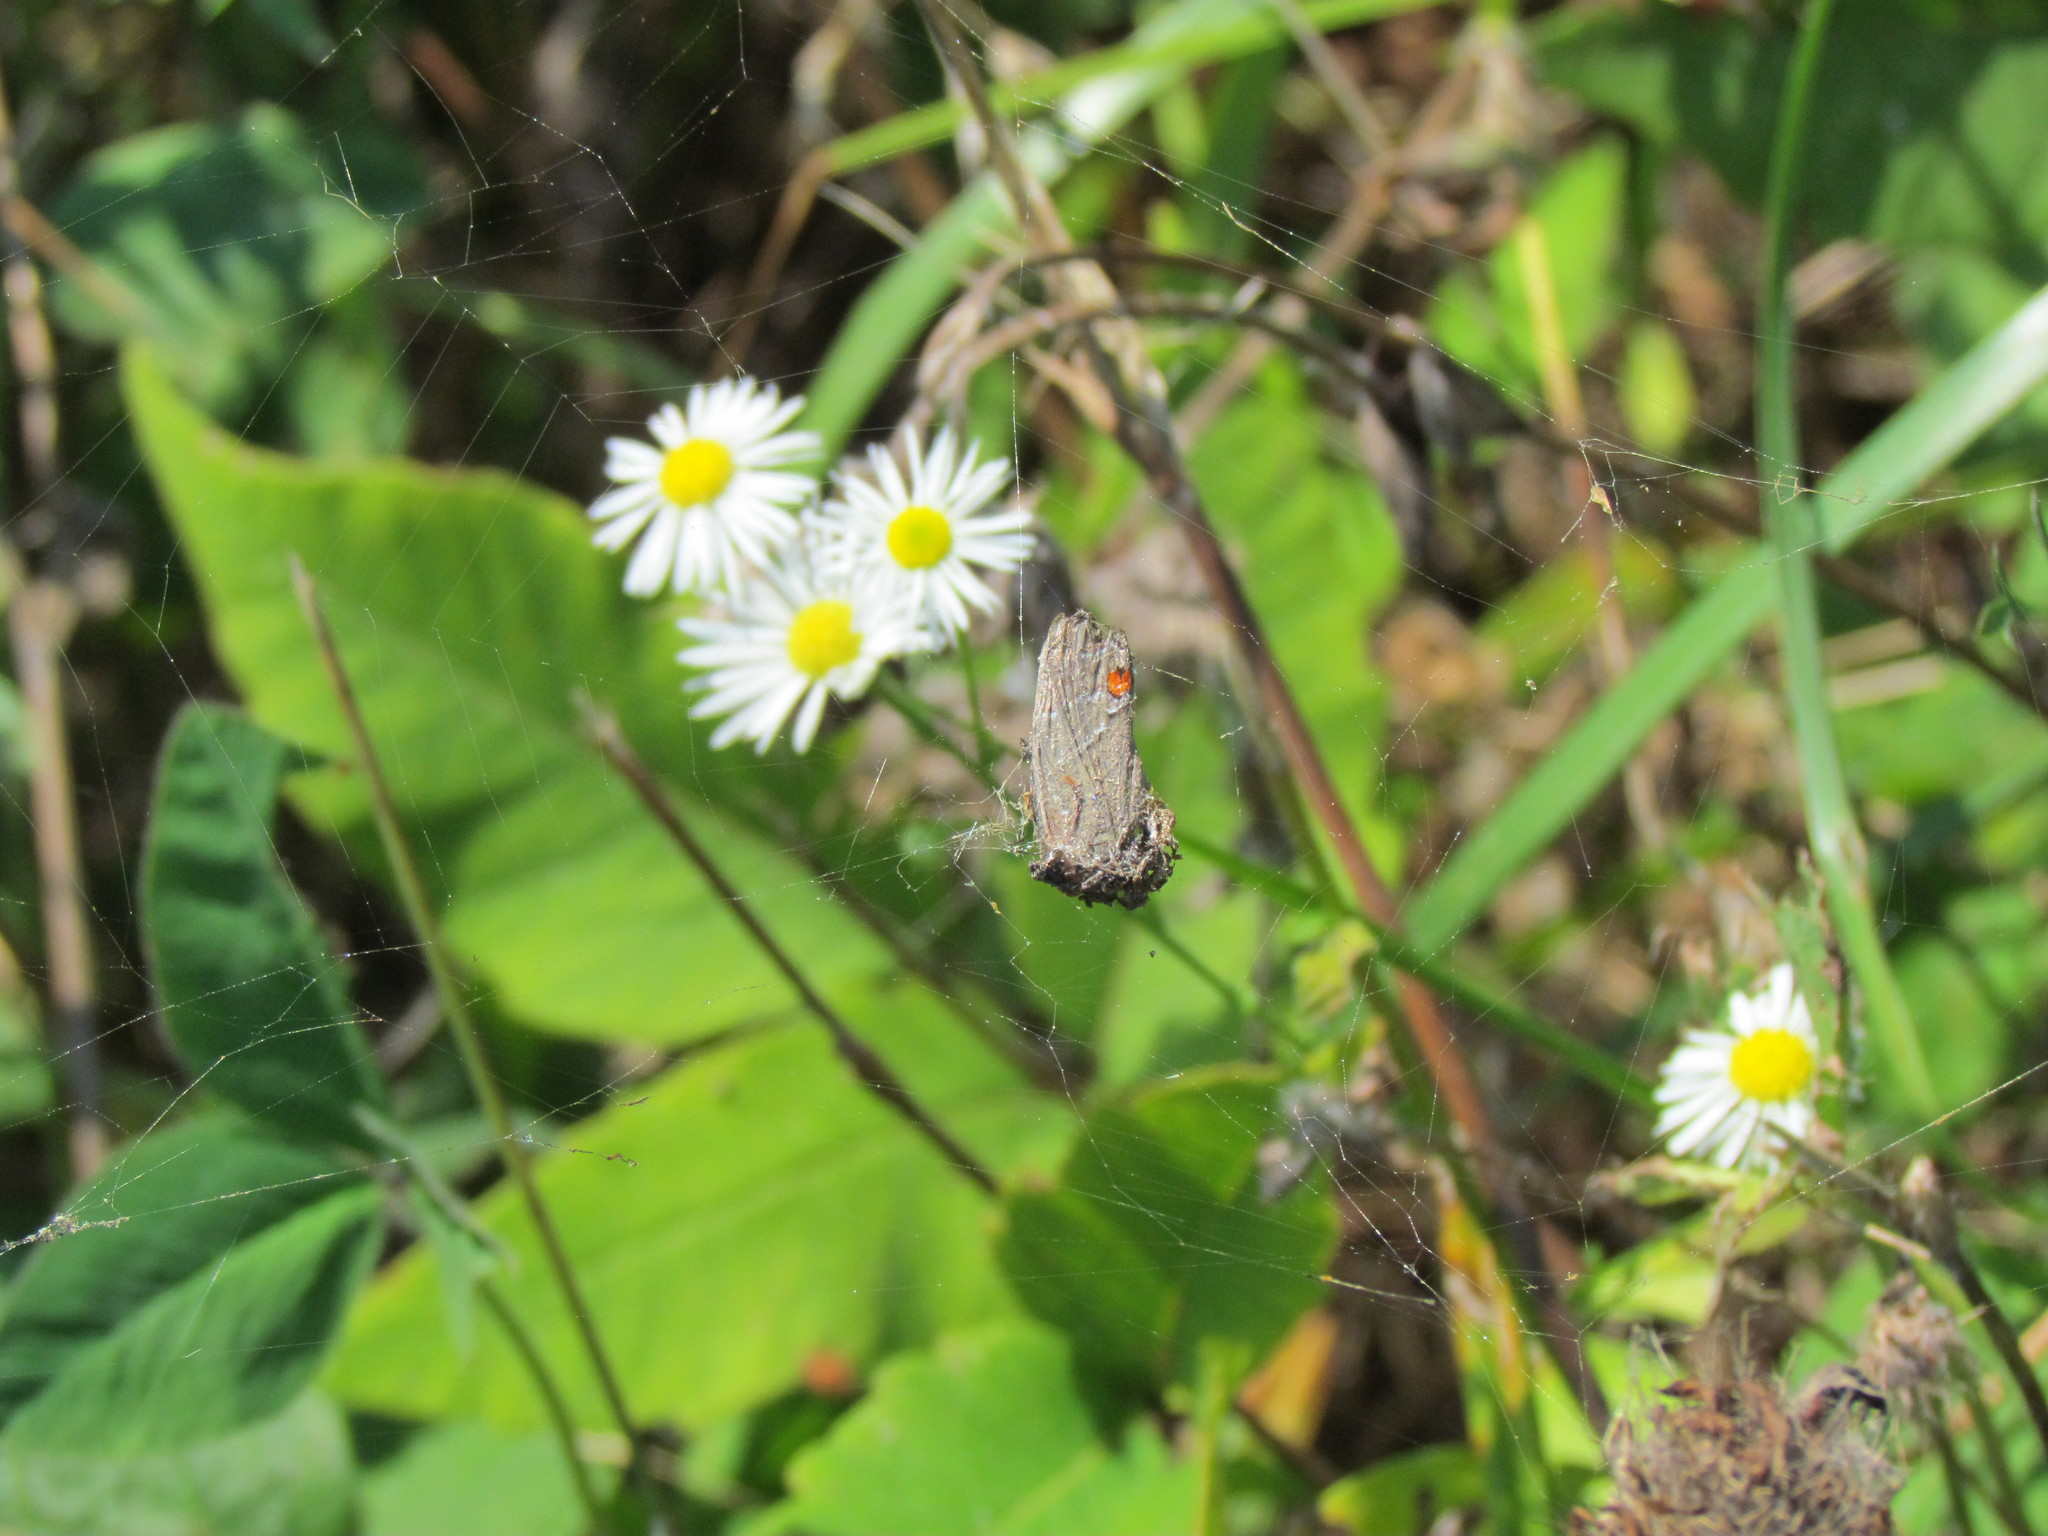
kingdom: Animalia
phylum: Arthropoda
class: Insecta
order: Lepidoptera
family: Lycaenidae
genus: Parrhasius
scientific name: Parrhasius m-album
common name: White m hairstreak
